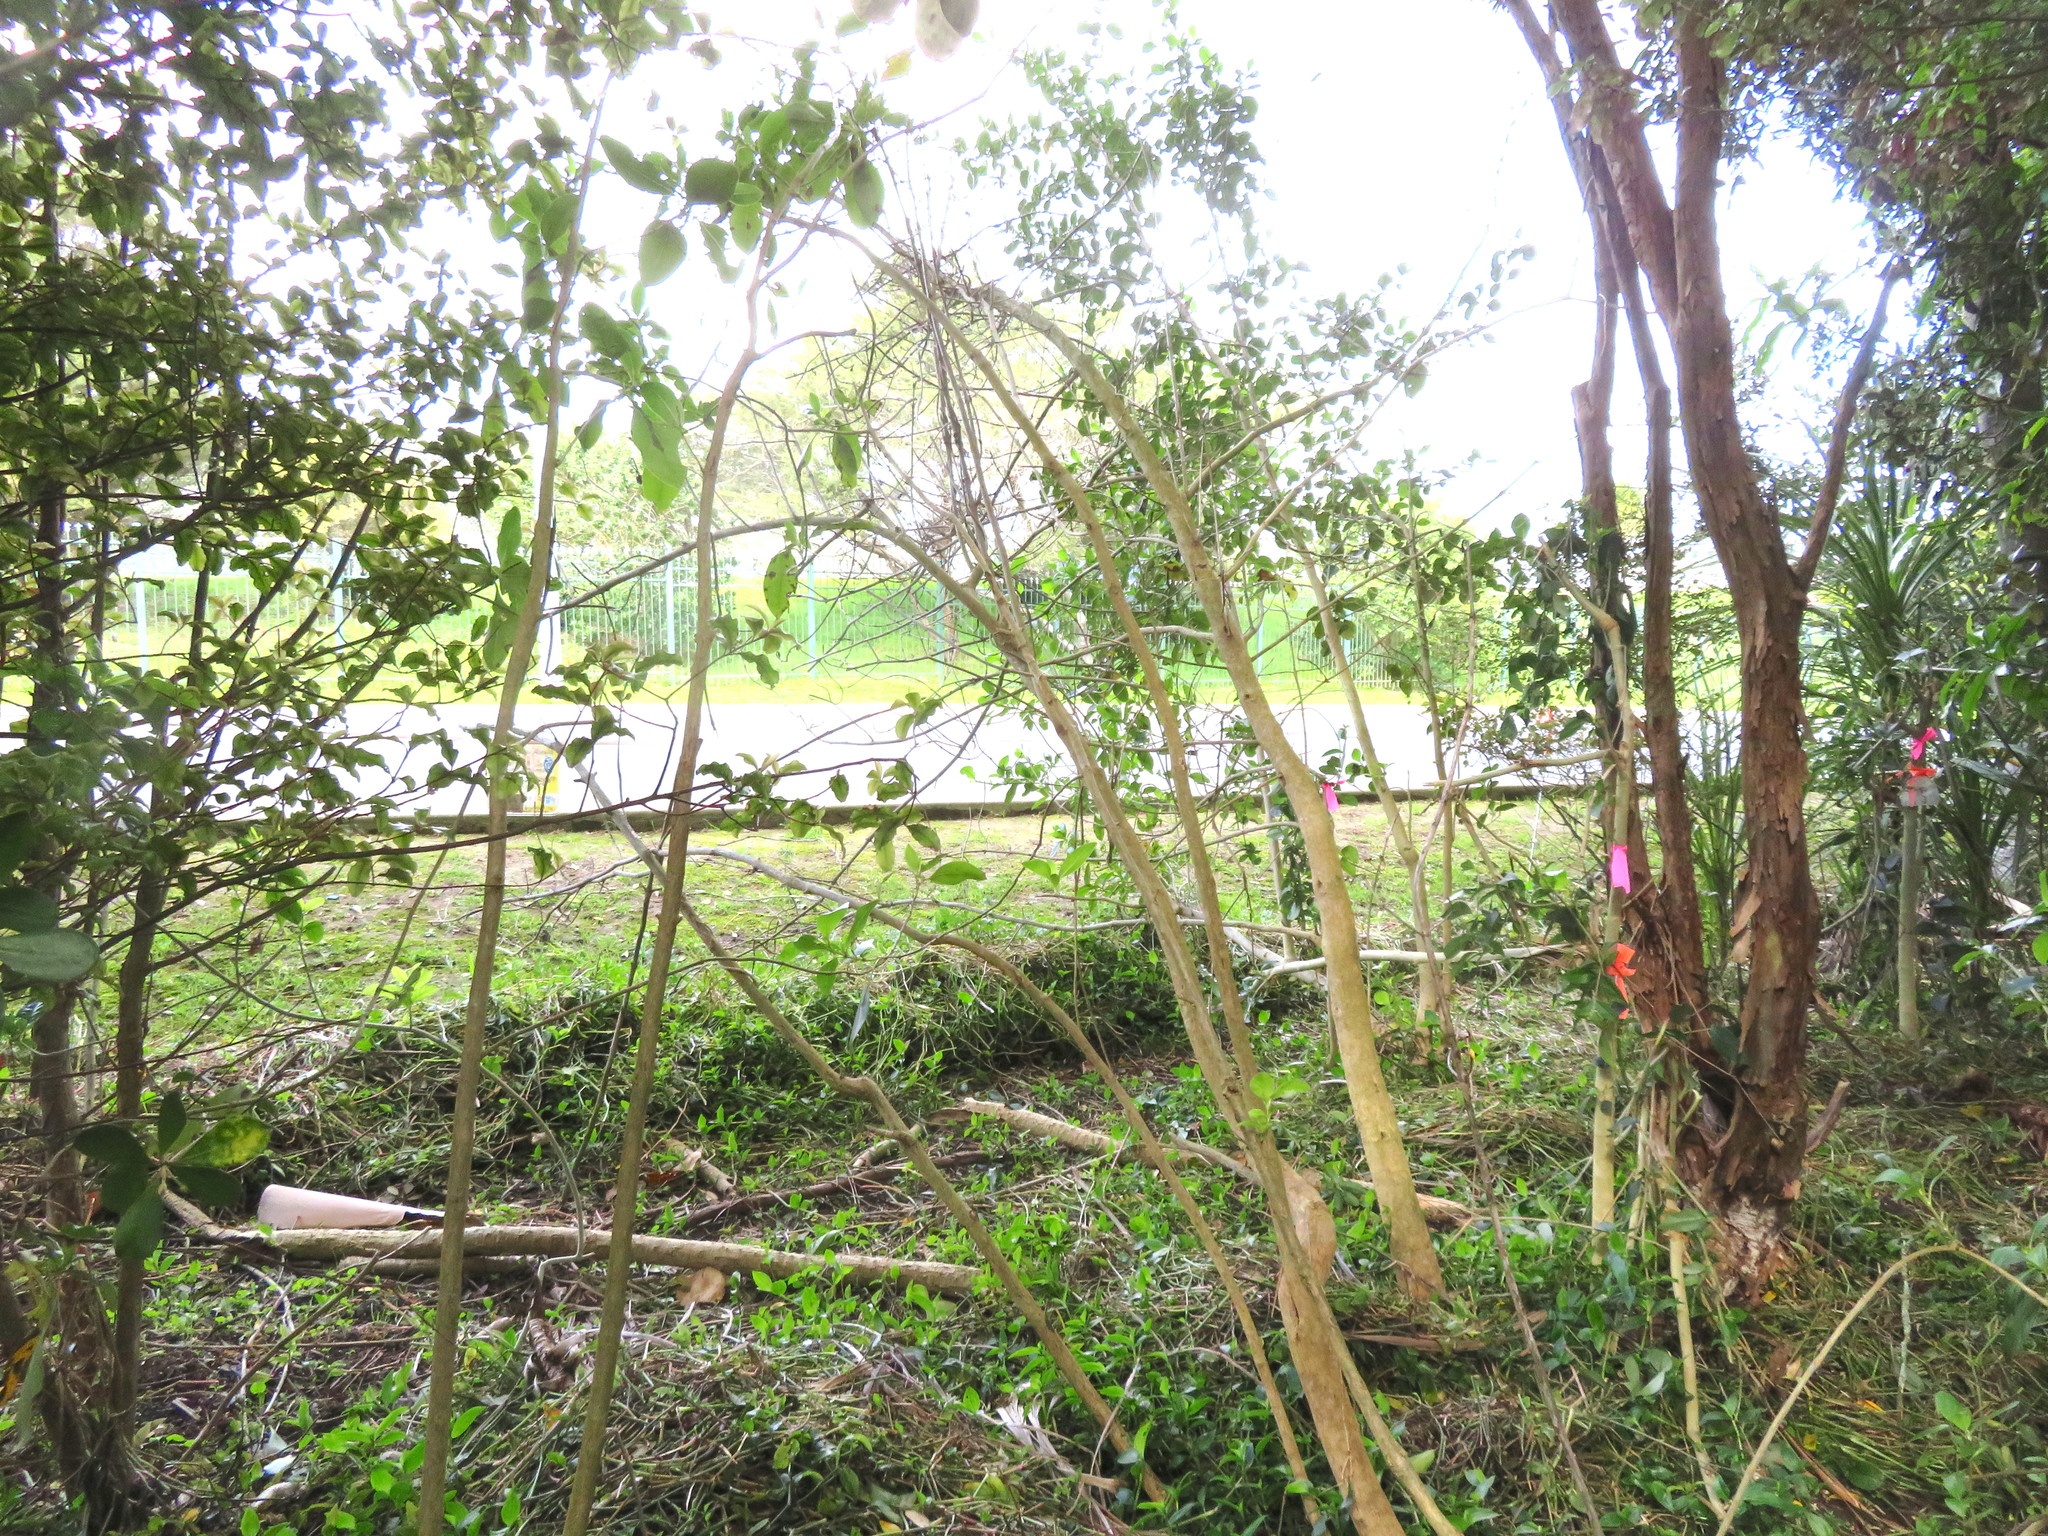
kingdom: Plantae
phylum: Tracheophyta
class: Liliopsida
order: Commelinales
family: Commelinaceae
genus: Tradescantia
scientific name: Tradescantia fluminensis
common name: Wandering-jew
